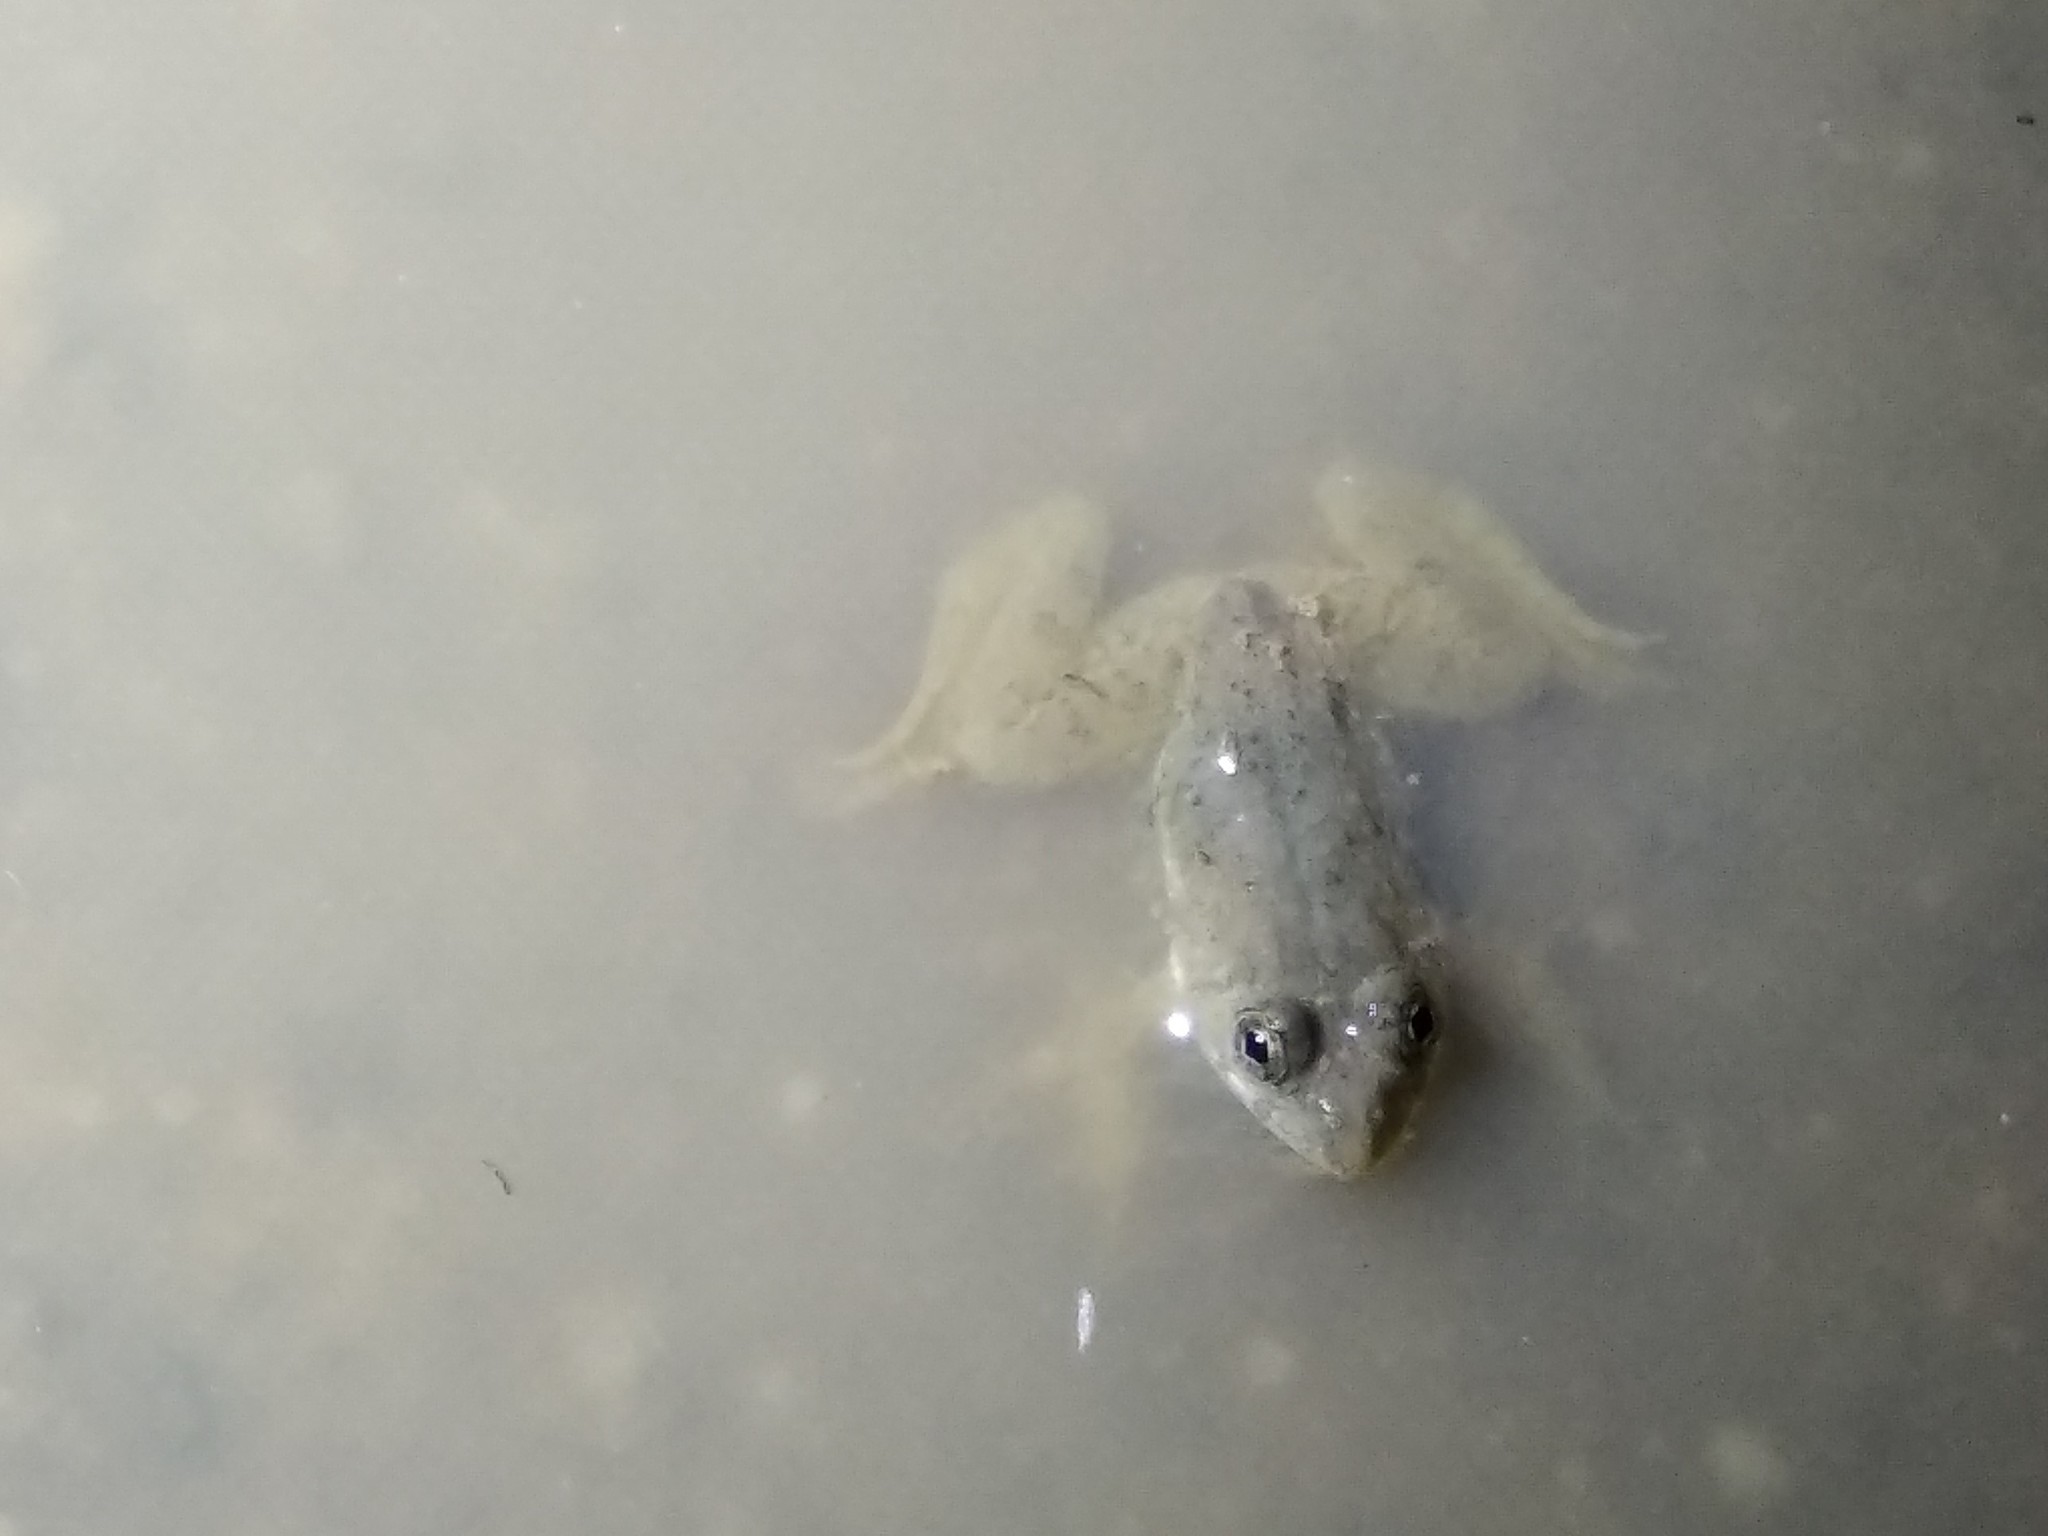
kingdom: Animalia
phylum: Chordata
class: Amphibia
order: Anura
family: Dicroglossidae
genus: Euphlyctis
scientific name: Euphlyctis cyanophlyctis
